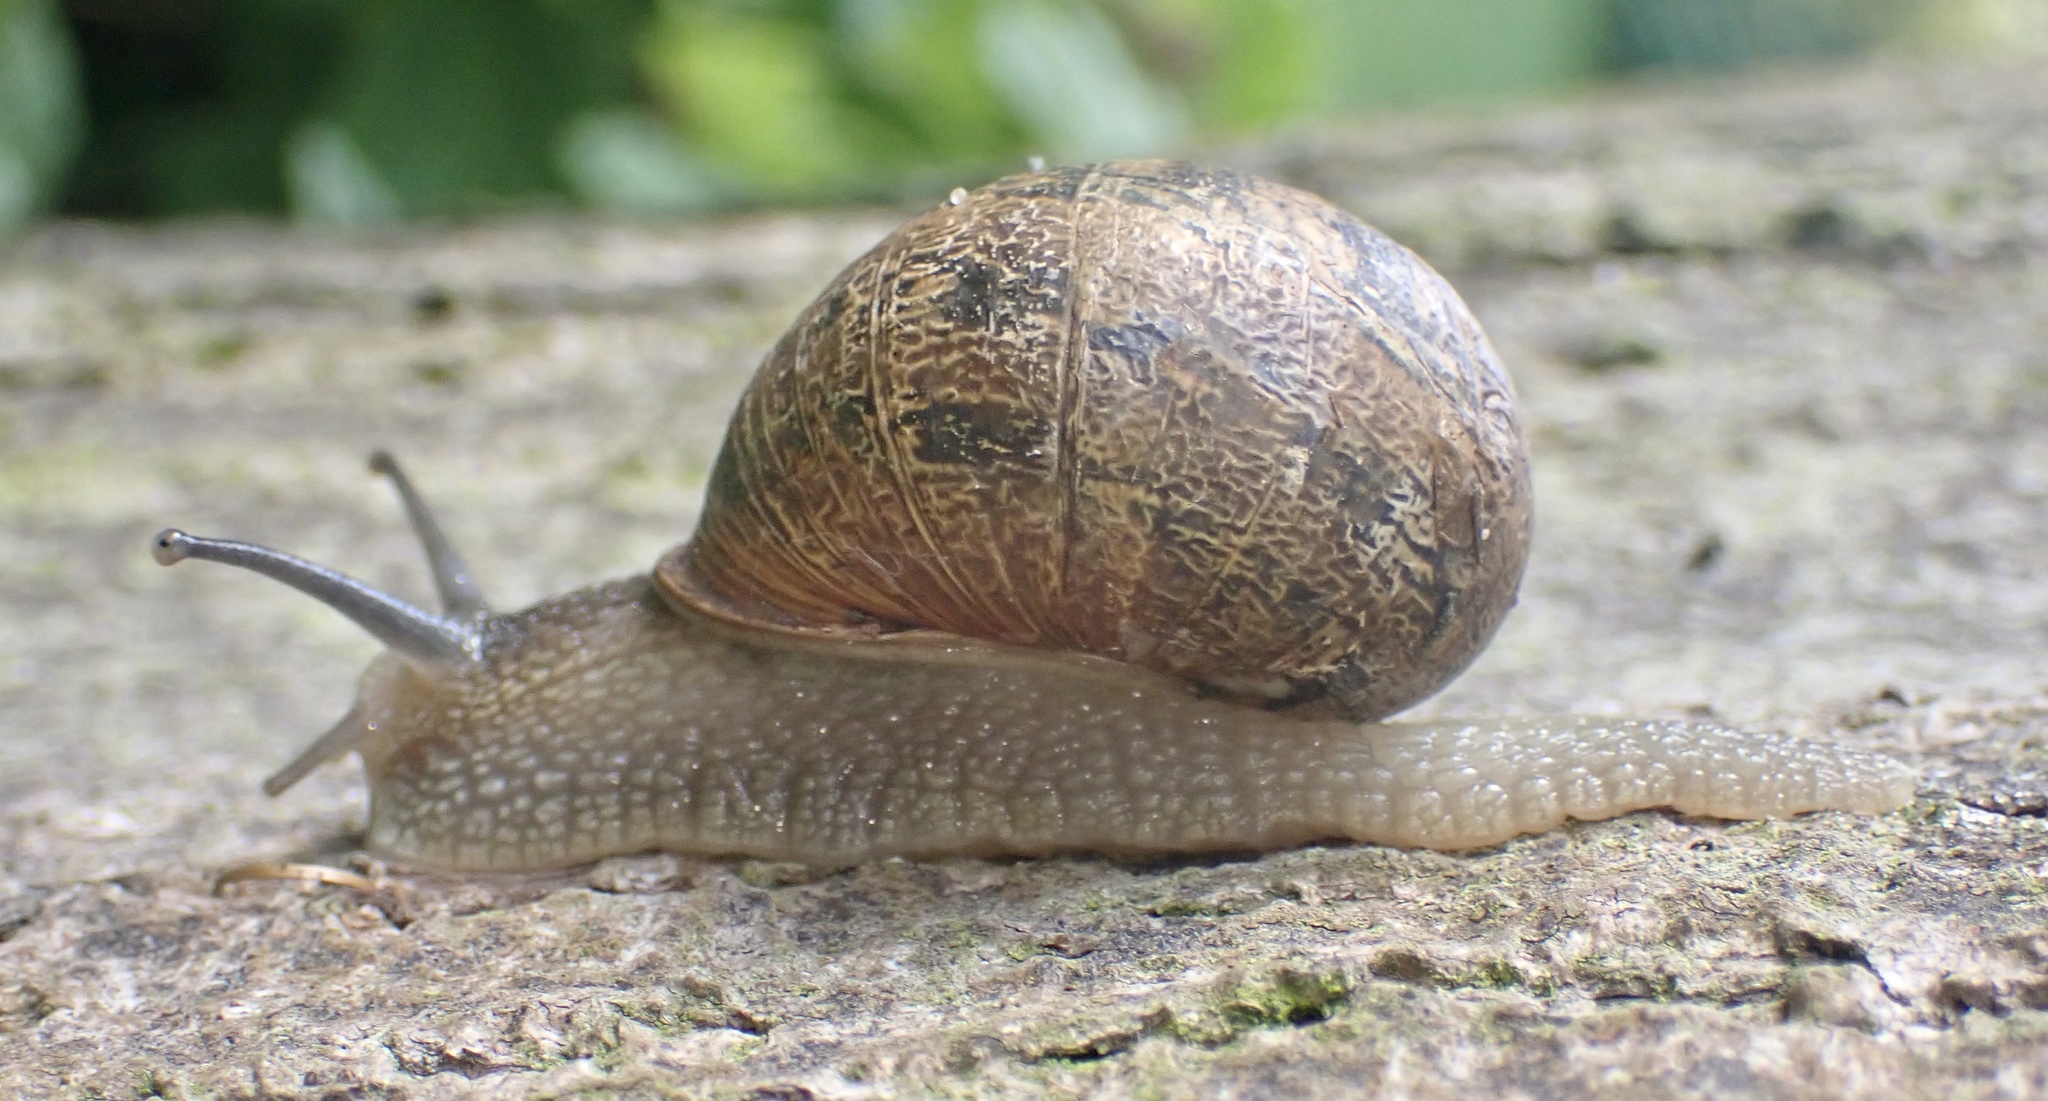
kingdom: Animalia
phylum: Mollusca
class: Gastropoda
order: Stylommatophora
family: Helicidae
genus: Cornu
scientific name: Cornu aspersum
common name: Brown garden snail
